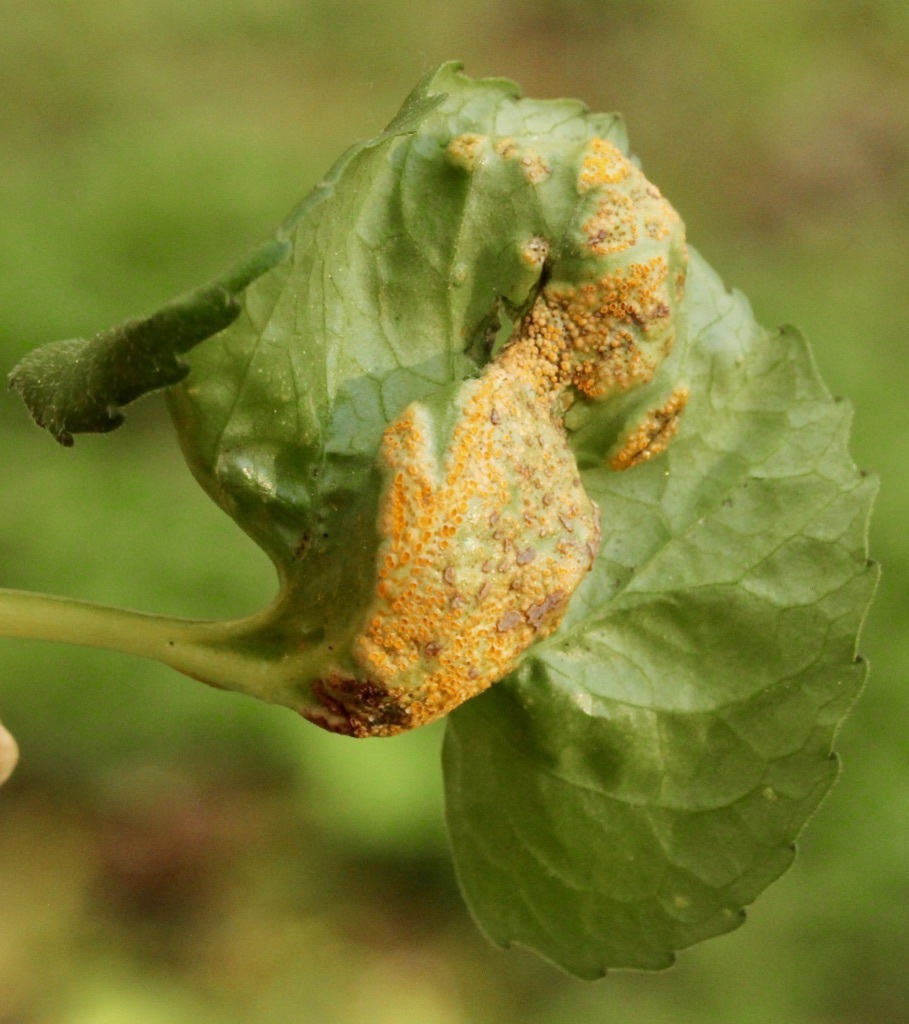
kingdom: Fungi
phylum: Basidiomycota
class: Pucciniomycetes
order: Pucciniales
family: Pucciniaceae
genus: Puccinia
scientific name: Puccinia violae
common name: Violet rust
